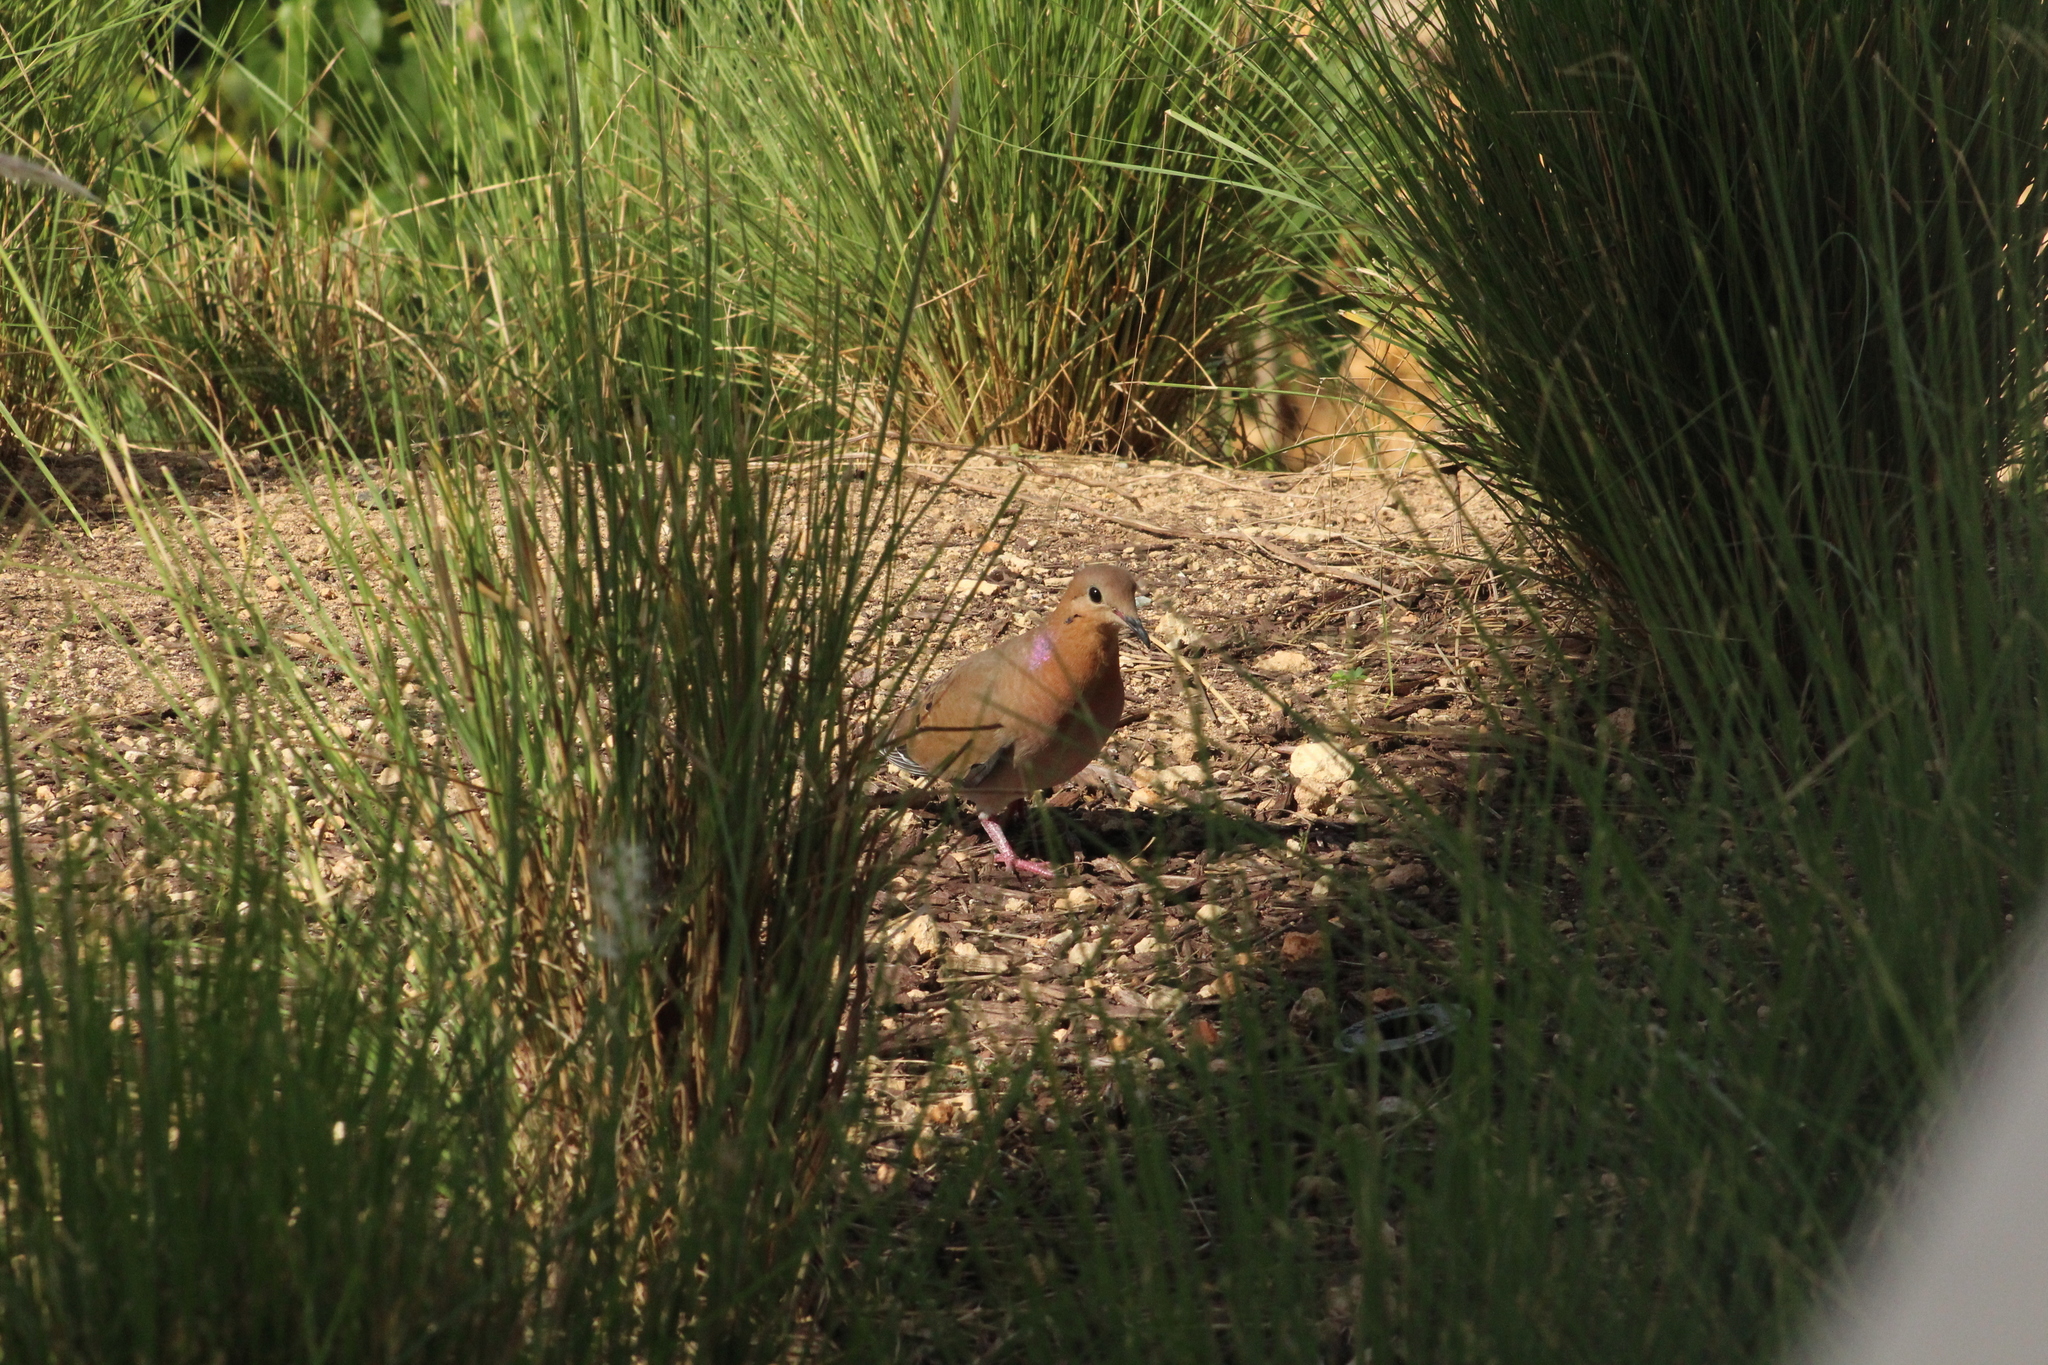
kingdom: Animalia
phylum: Chordata
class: Aves
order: Columbiformes
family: Columbidae
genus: Zenaida
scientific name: Zenaida aurita
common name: Zenaida dove
